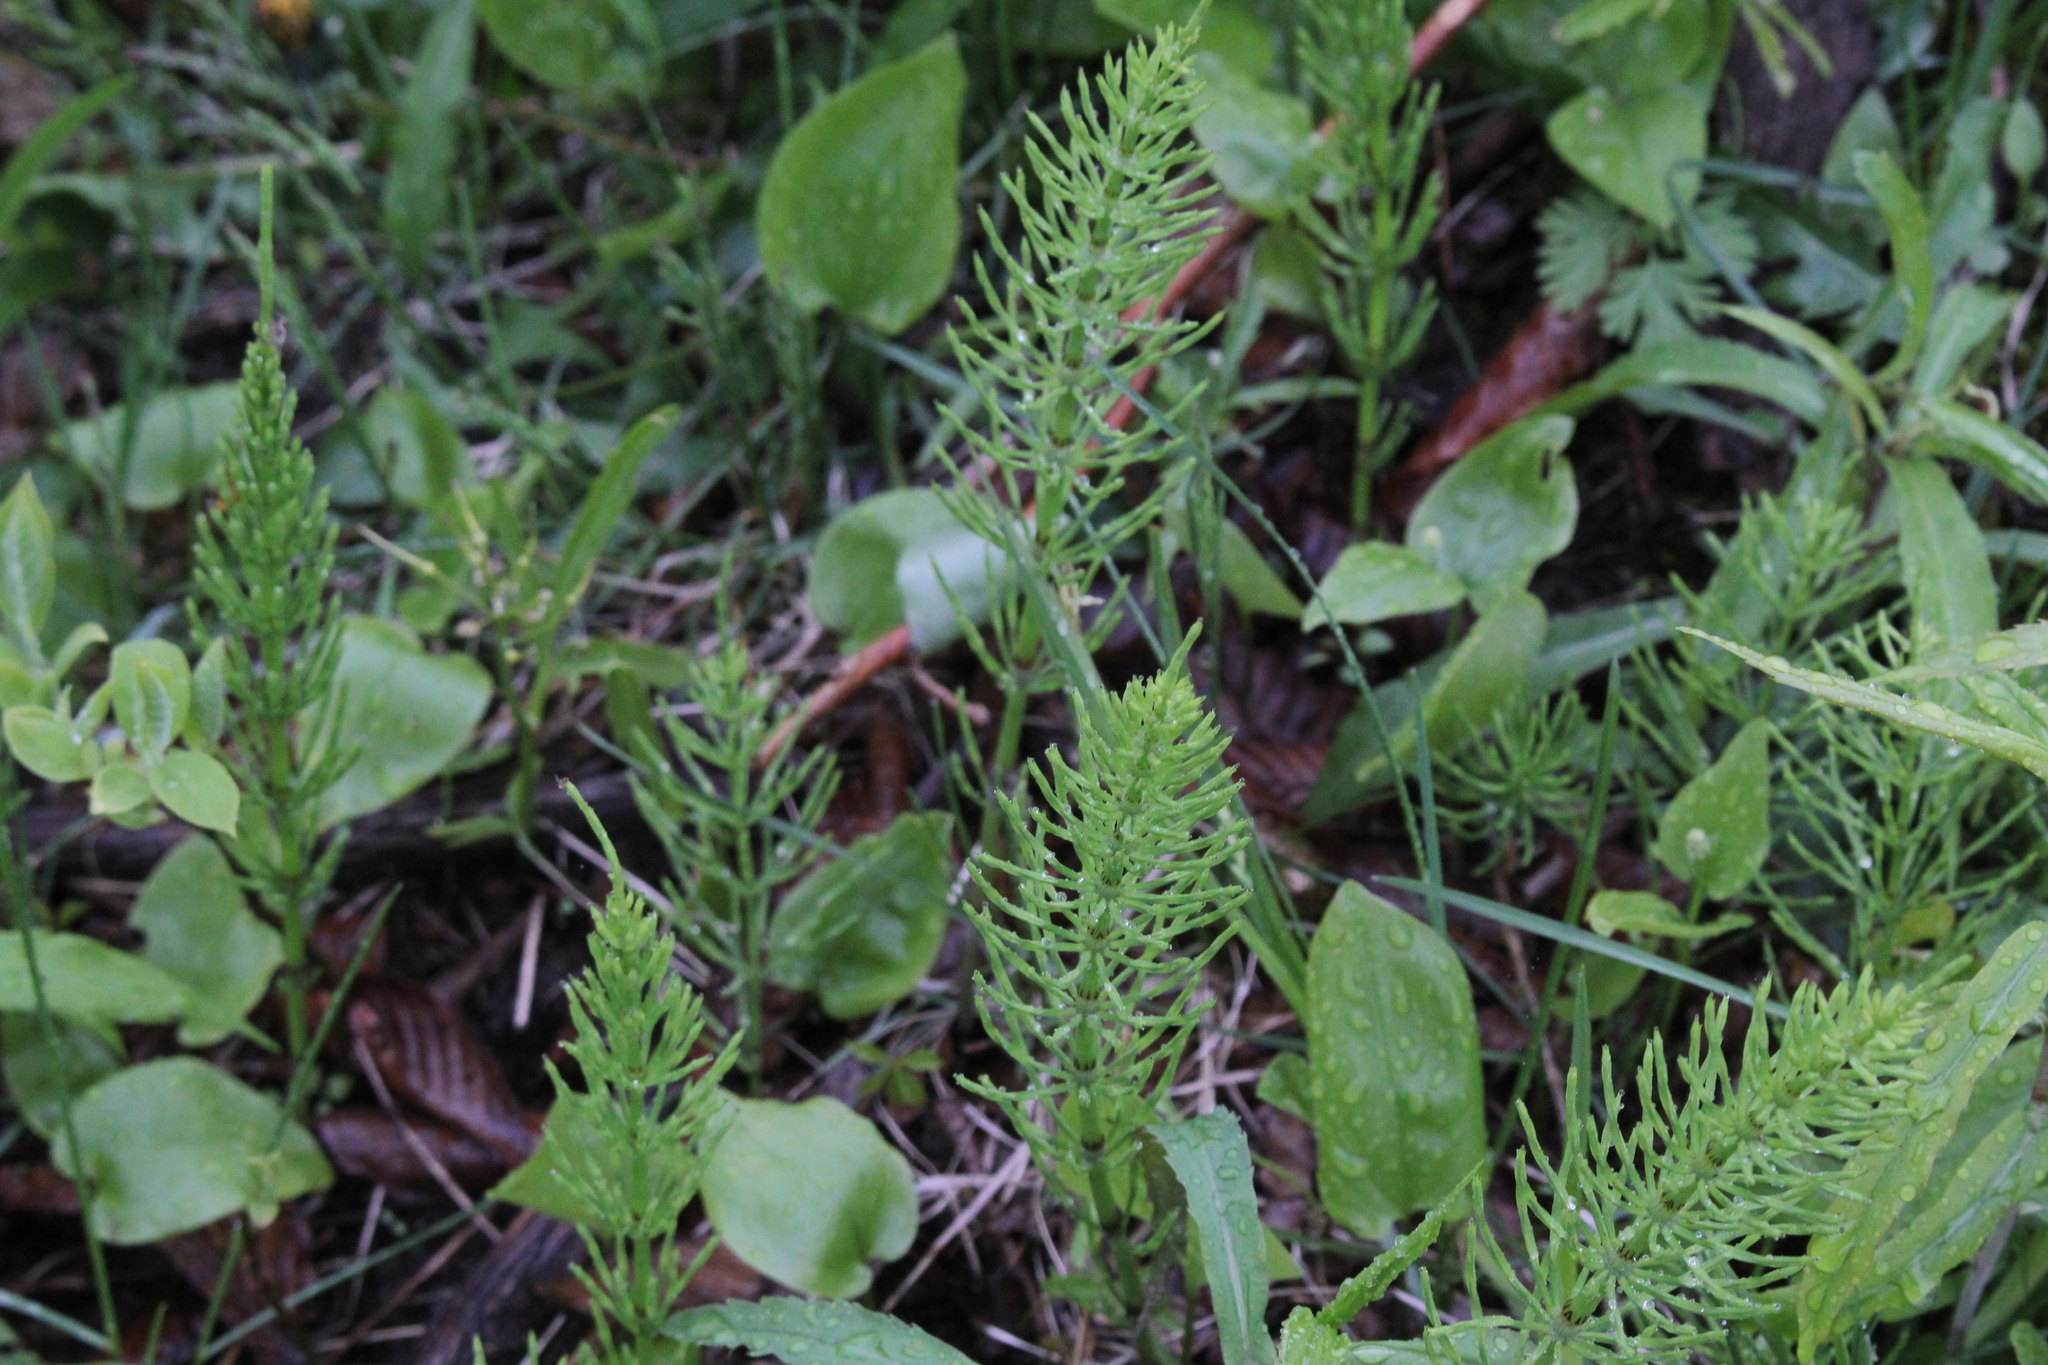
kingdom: Plantae
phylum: Tracheophyta
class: Polypodiopsida
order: Equisetales
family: Equisetaceae
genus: Equisetum
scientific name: Equisetum arvense
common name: Field horsetail
